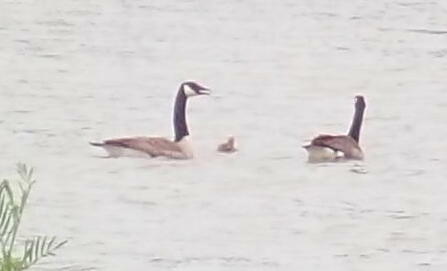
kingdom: Animalia
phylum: Chordata
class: Aves
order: Anseriformes
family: Anatidae
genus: Branta
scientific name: Branta canadensis
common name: Canada goose
